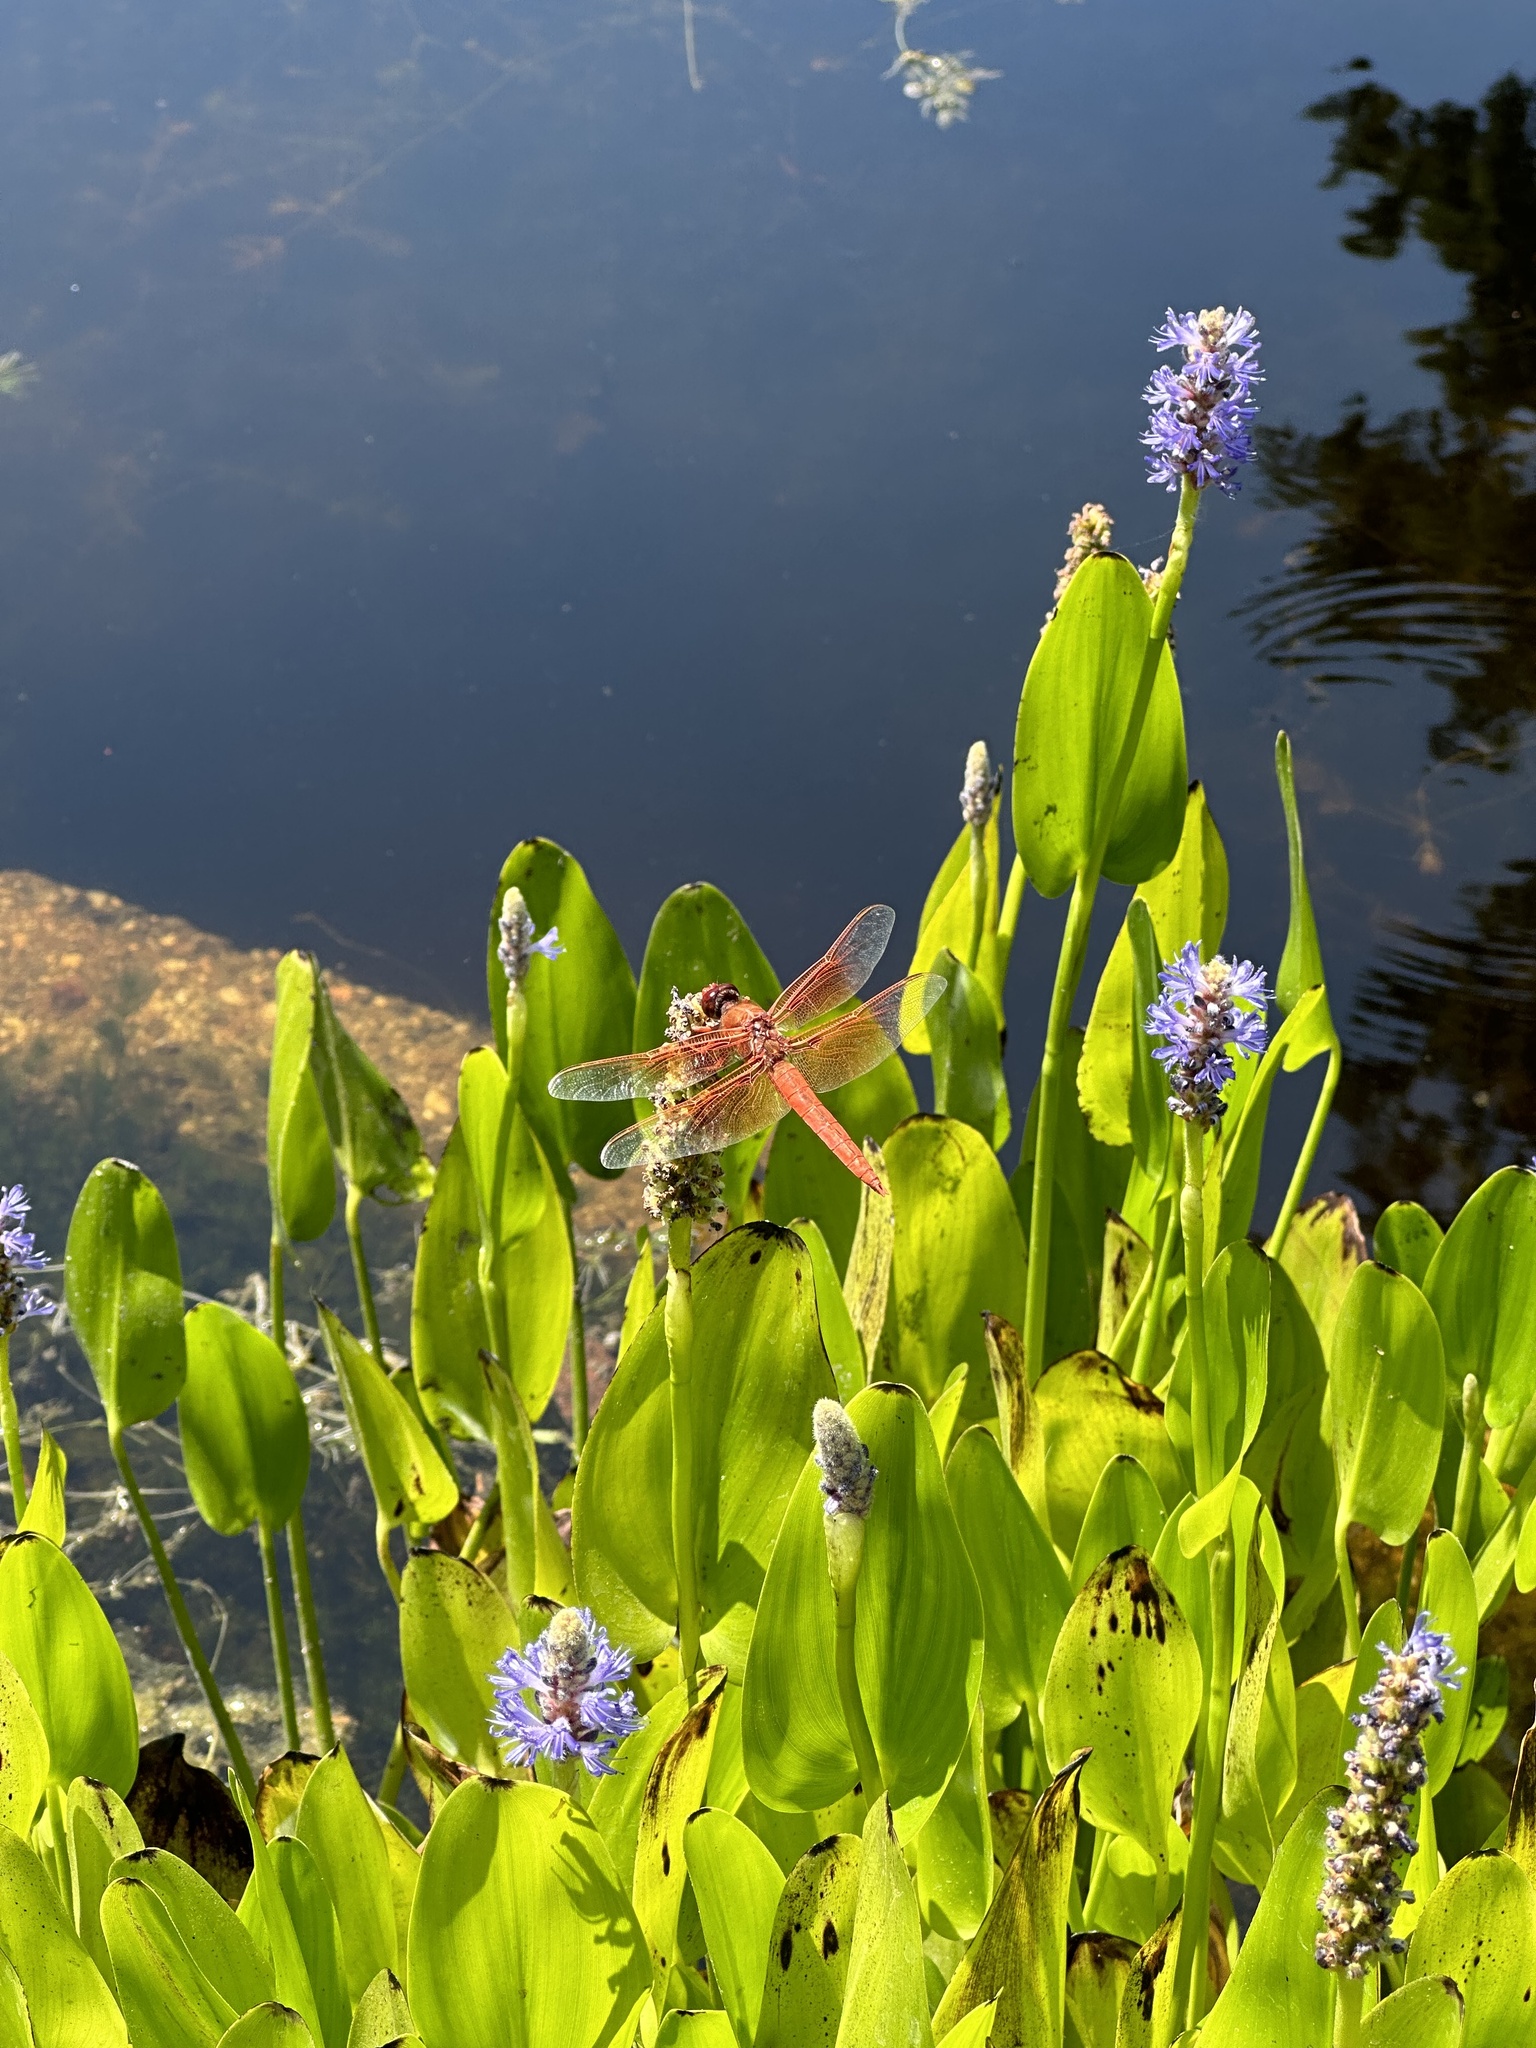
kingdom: Animalia
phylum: Arthropoda
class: Insecta
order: Odonata
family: Libellulidae
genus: Libellula
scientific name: Libellula saturata
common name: Flame skimmer
